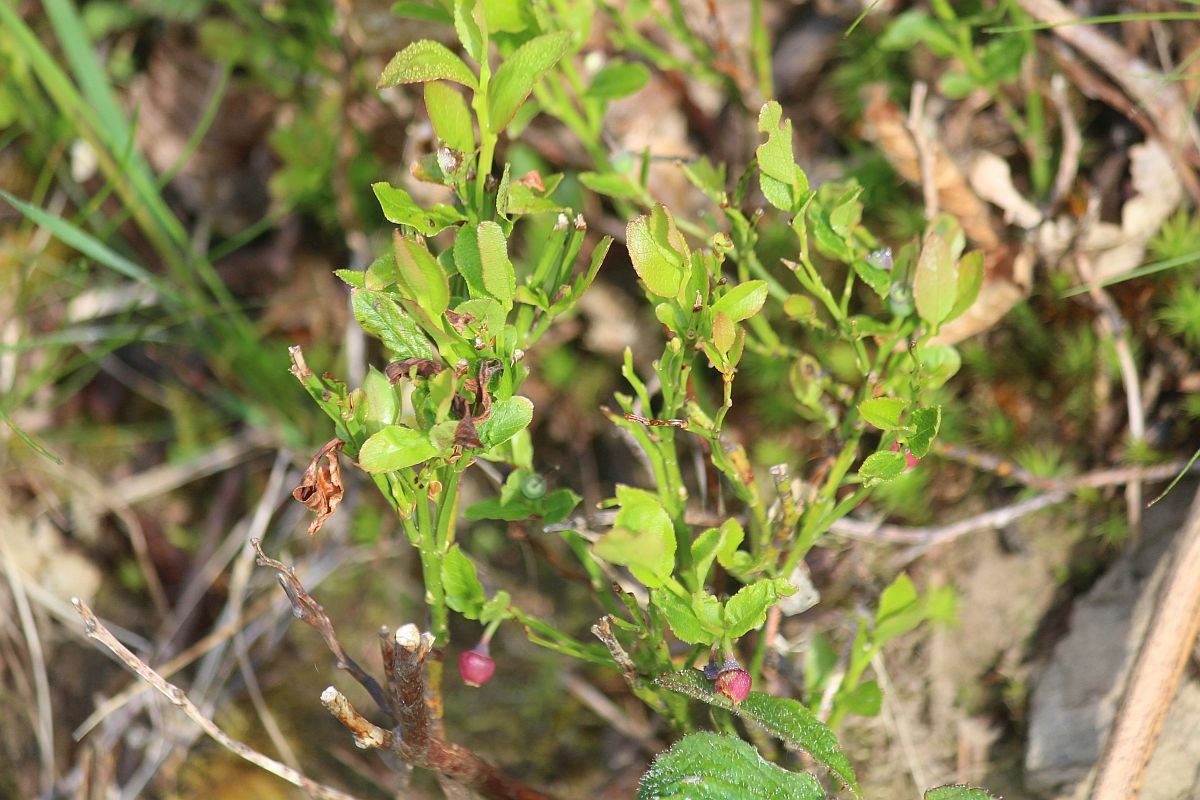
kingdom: Plantae
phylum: Tracheophyta
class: Magnoliopsida
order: Ericales
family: Ericaceae
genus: Vaccinium
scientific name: Vaccinium myrtillus
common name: Bilberry
